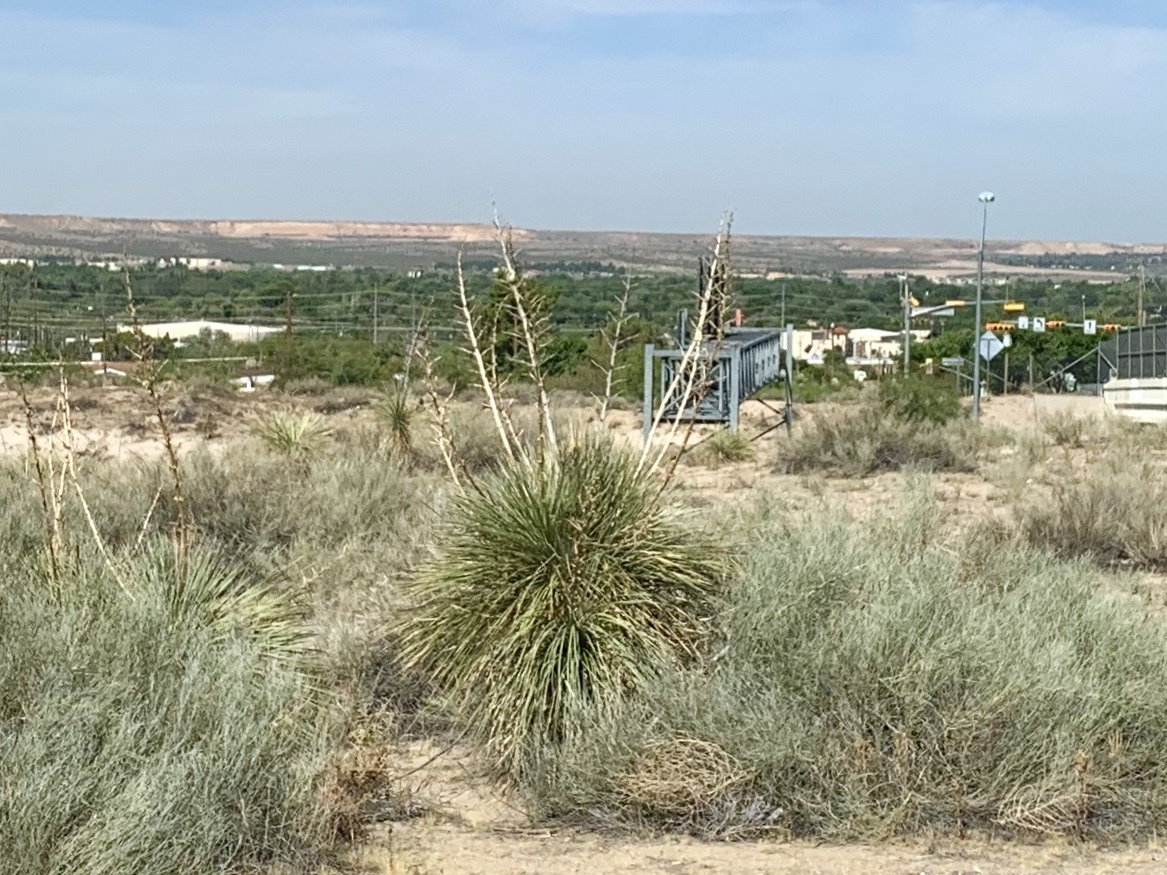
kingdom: Plantae
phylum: Tracheophyta
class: Liliopsida
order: Asparagales
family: Asparagaceae
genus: Yucca
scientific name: Yucca elata
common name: Palmella
